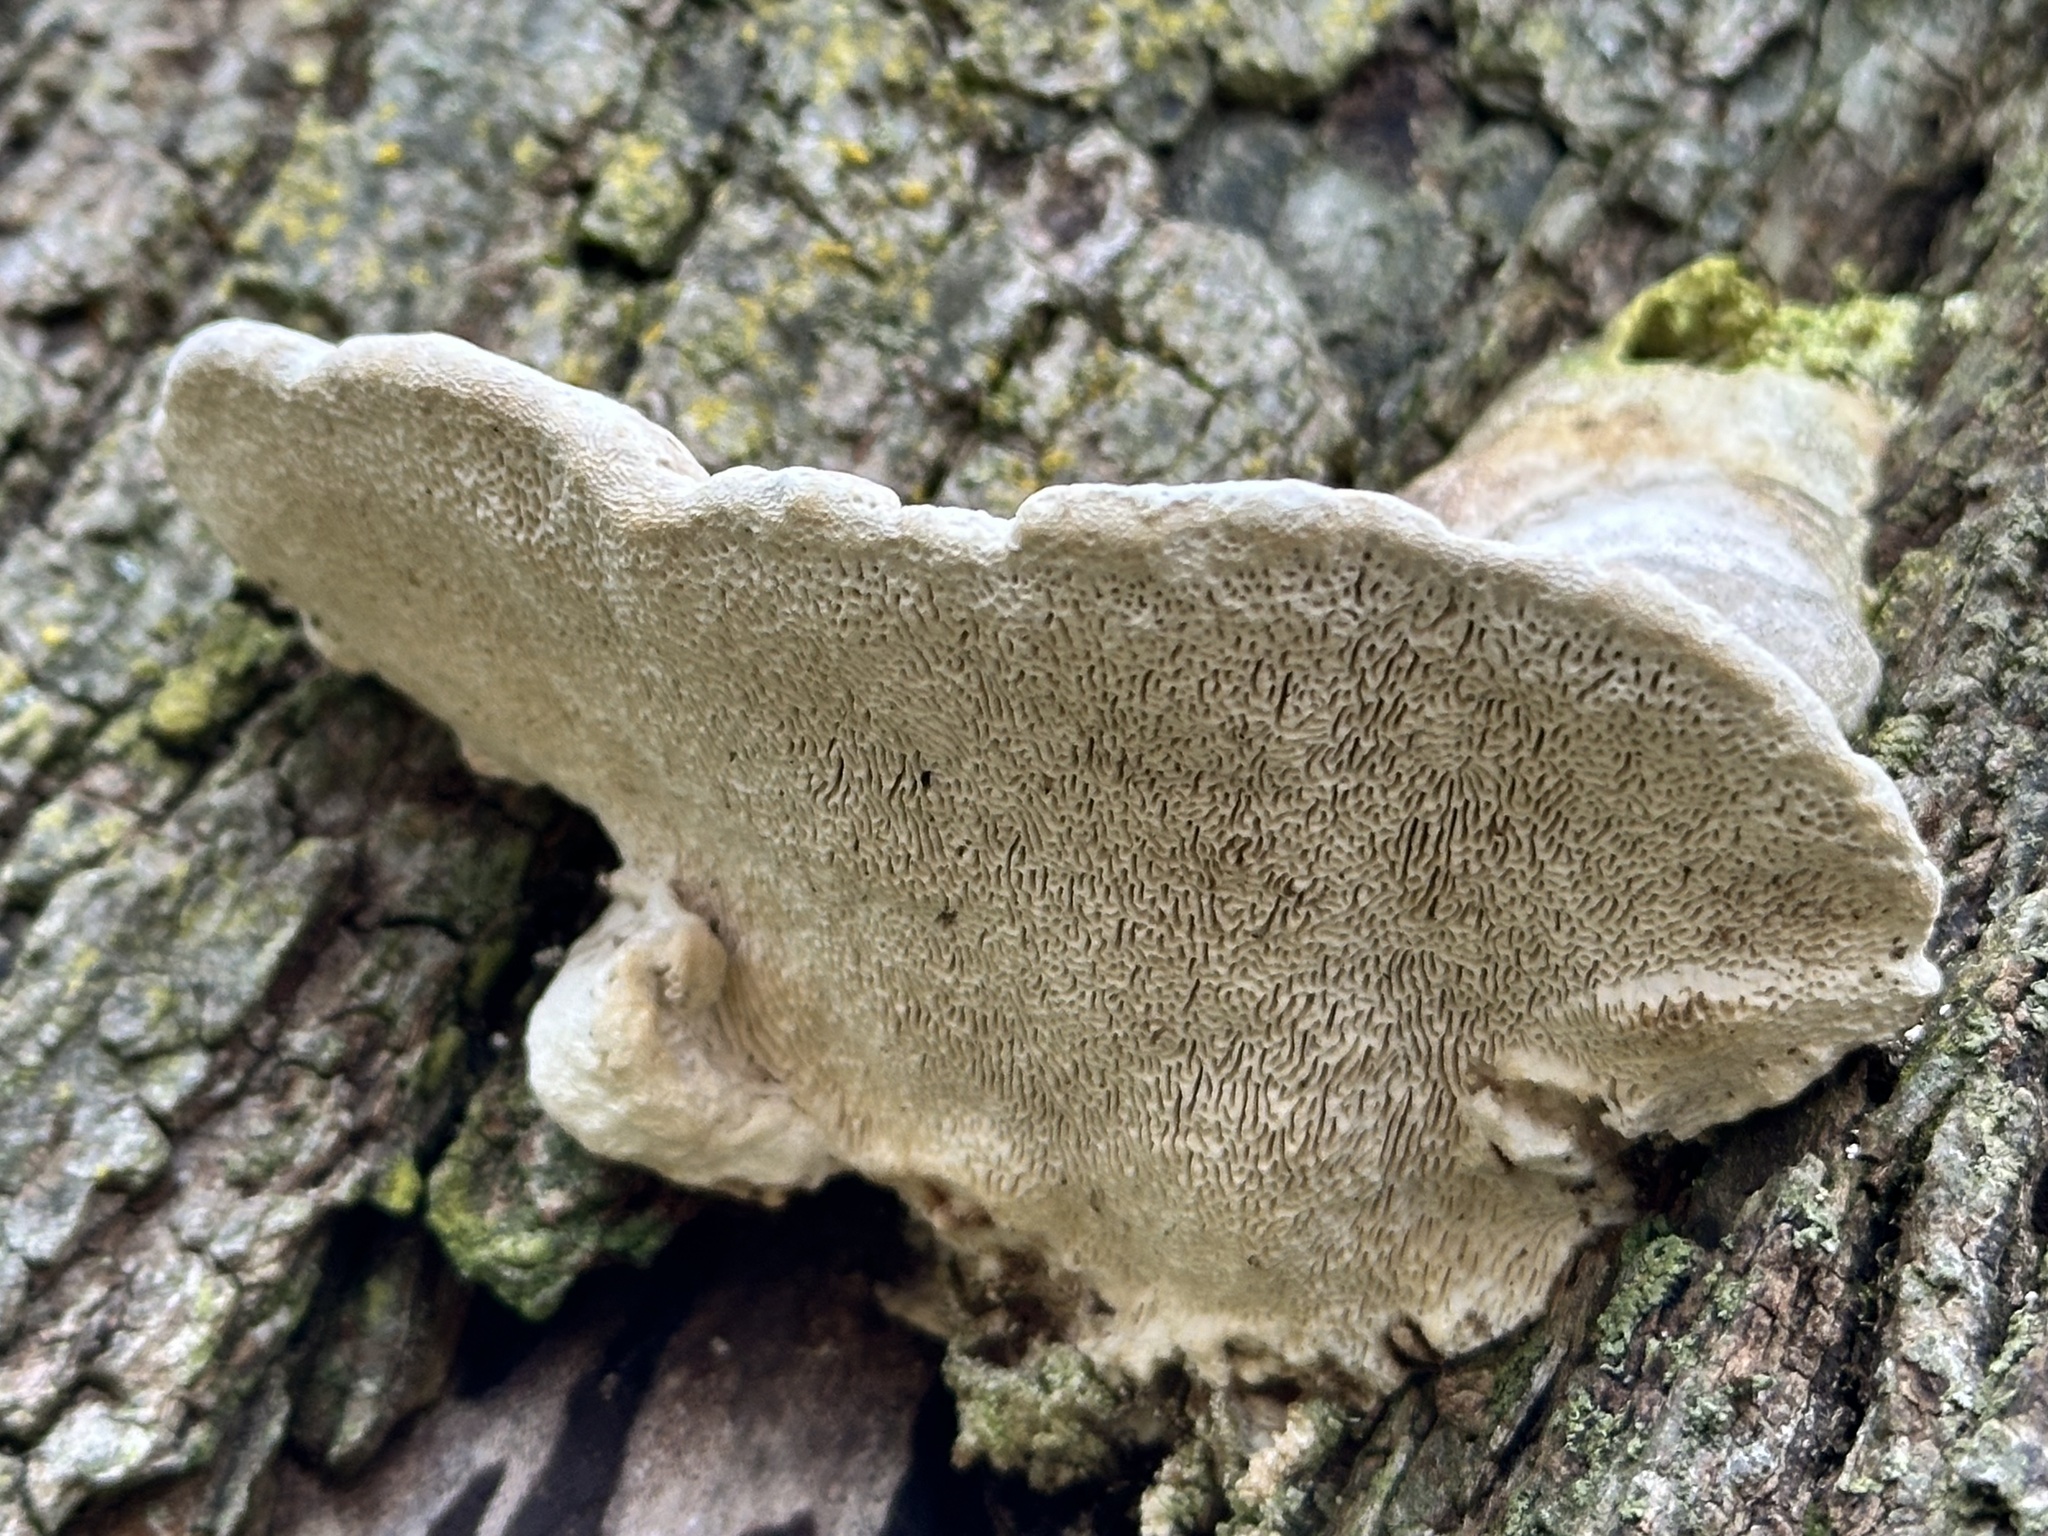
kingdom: Fungi
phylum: Basidiomycota
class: Agaricomycetes
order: Polyporales
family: Polyporaceae
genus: Trametes
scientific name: Trametes gibbosa
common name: Lumpy bracket
